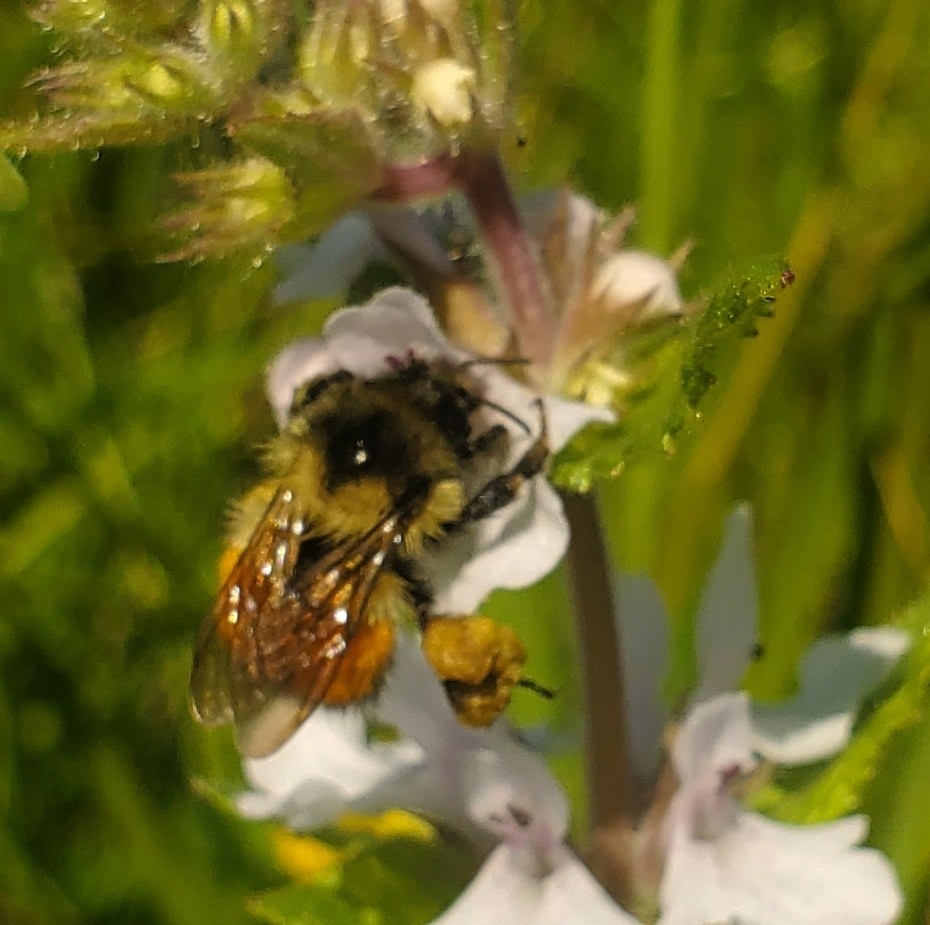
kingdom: Animalia
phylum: Arthropoda
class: Insecta
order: Hymenoptera
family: Apidae
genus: Bombus
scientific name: Bombus melanopygus
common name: Black tail bumble bee
